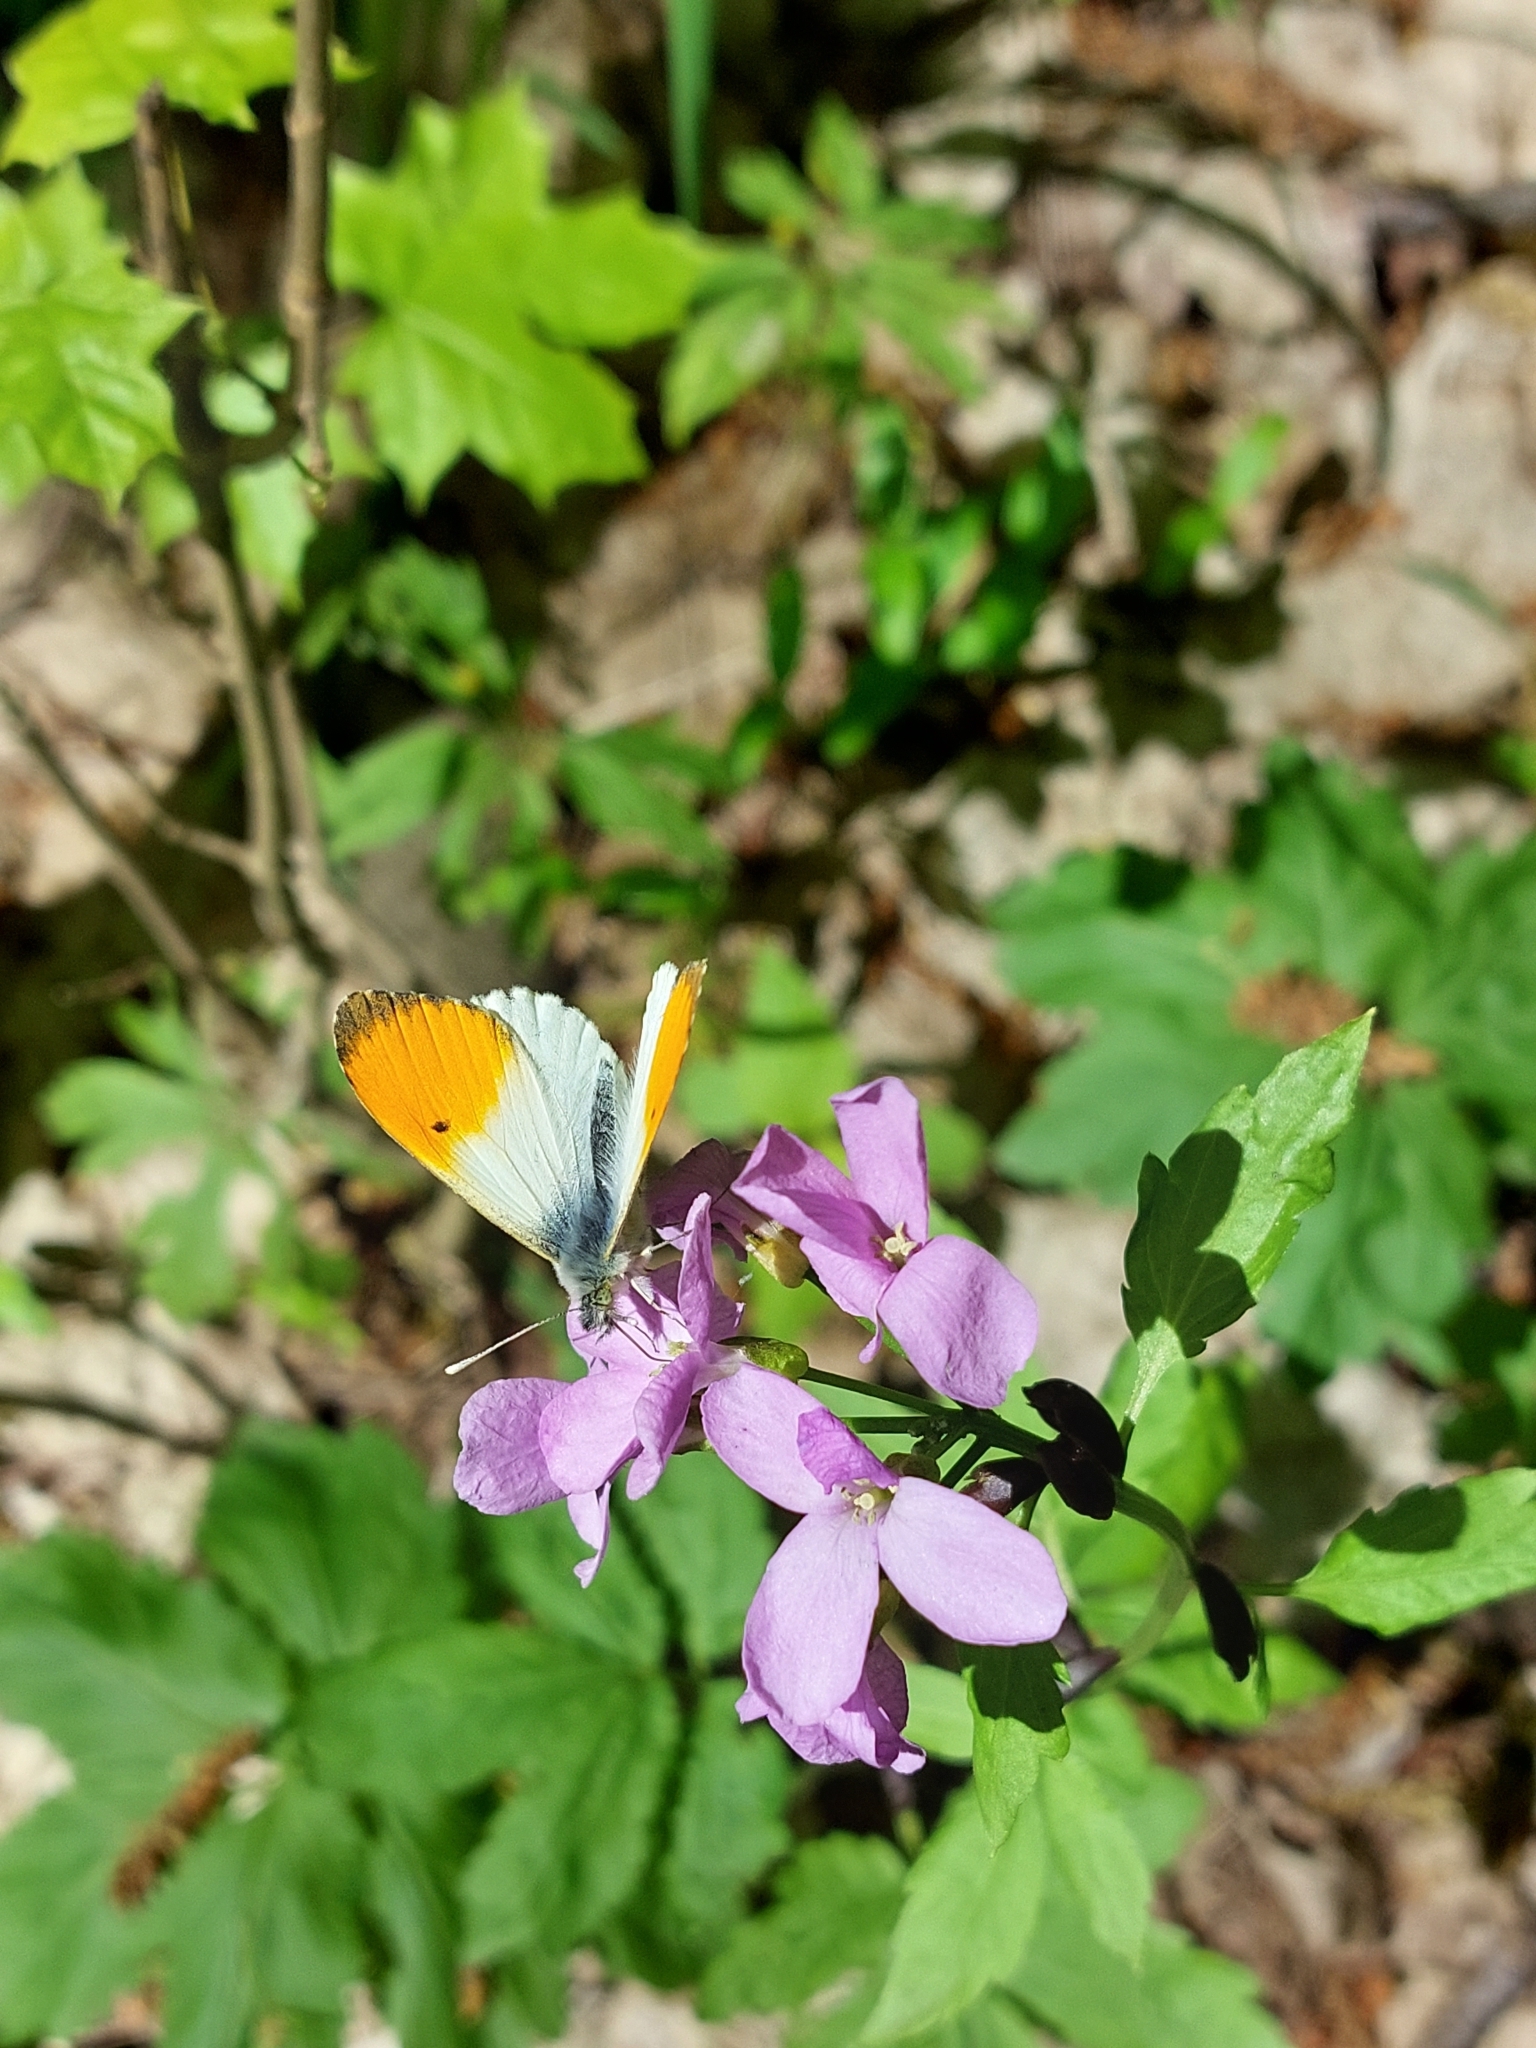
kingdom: Animalia
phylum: Arthropoda
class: Insecta
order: Lepidoptera
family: Pieridae
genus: Anthocharis
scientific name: Anthocharis cardamines
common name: Orange-tip
